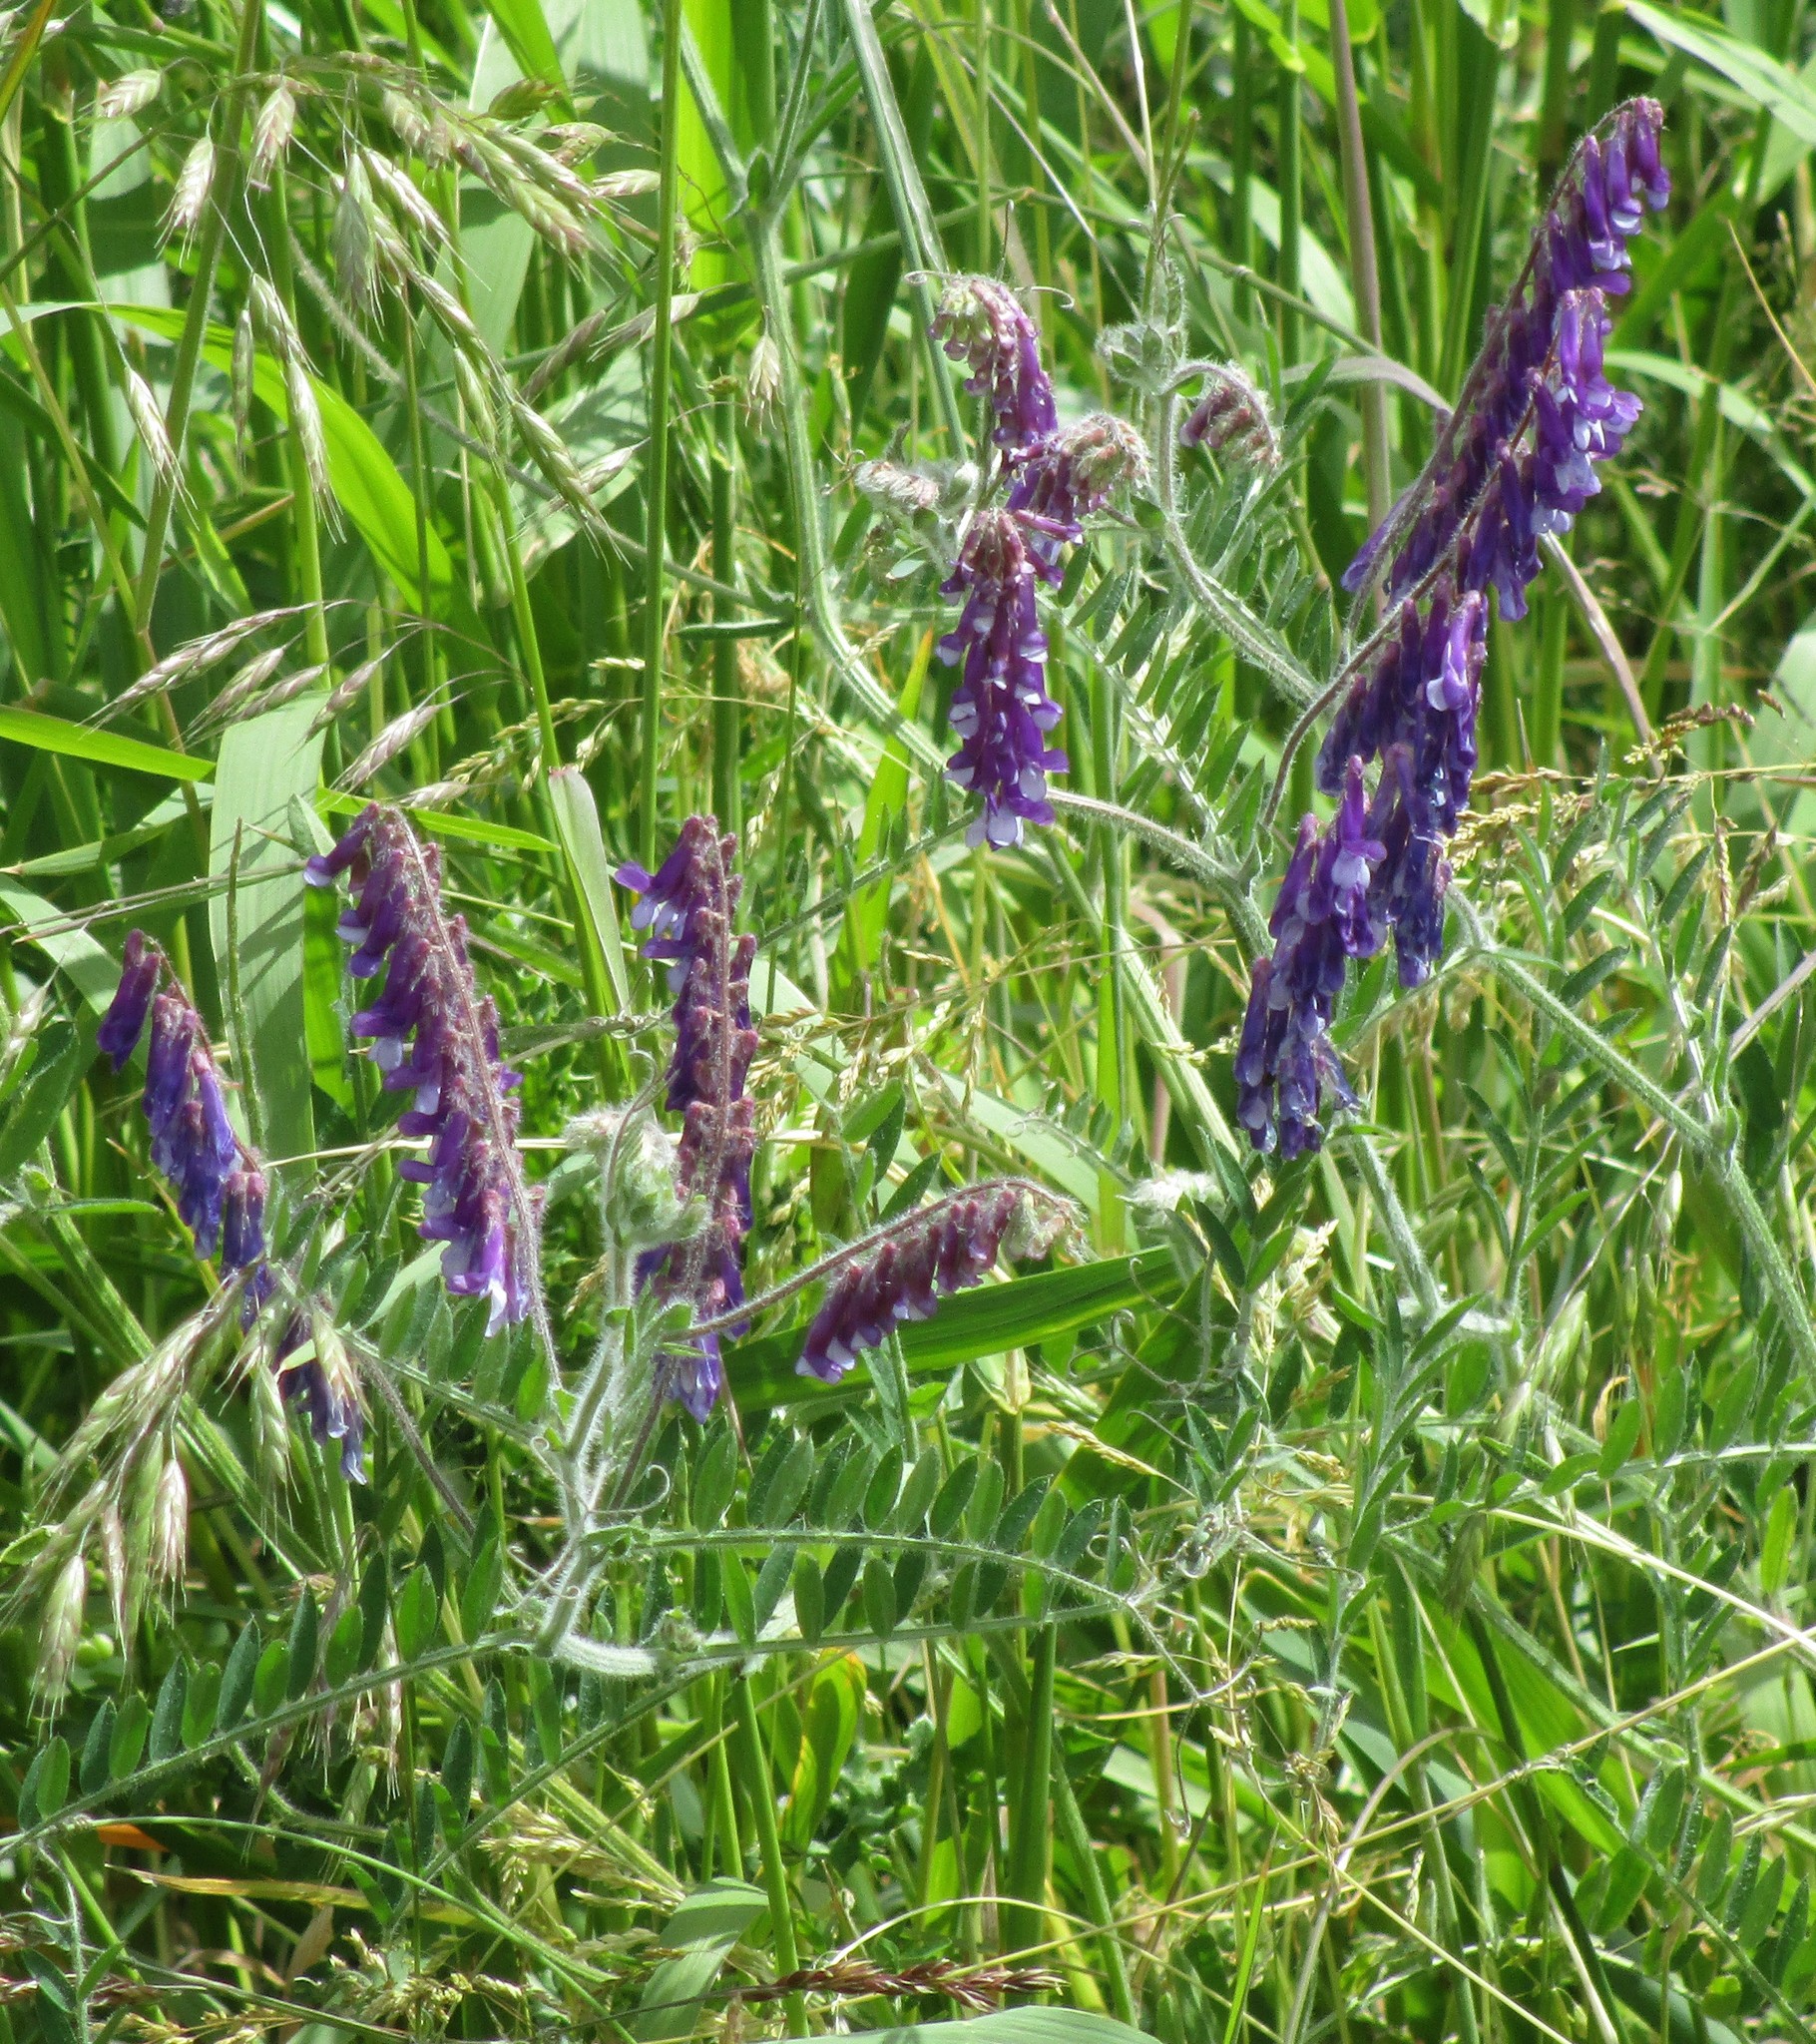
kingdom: Plantae
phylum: Tracheophyta
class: Magnoliopsida
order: Fabales
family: Fabaceae
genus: Vicia
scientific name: Vicia villosa
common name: Fodder vetch
